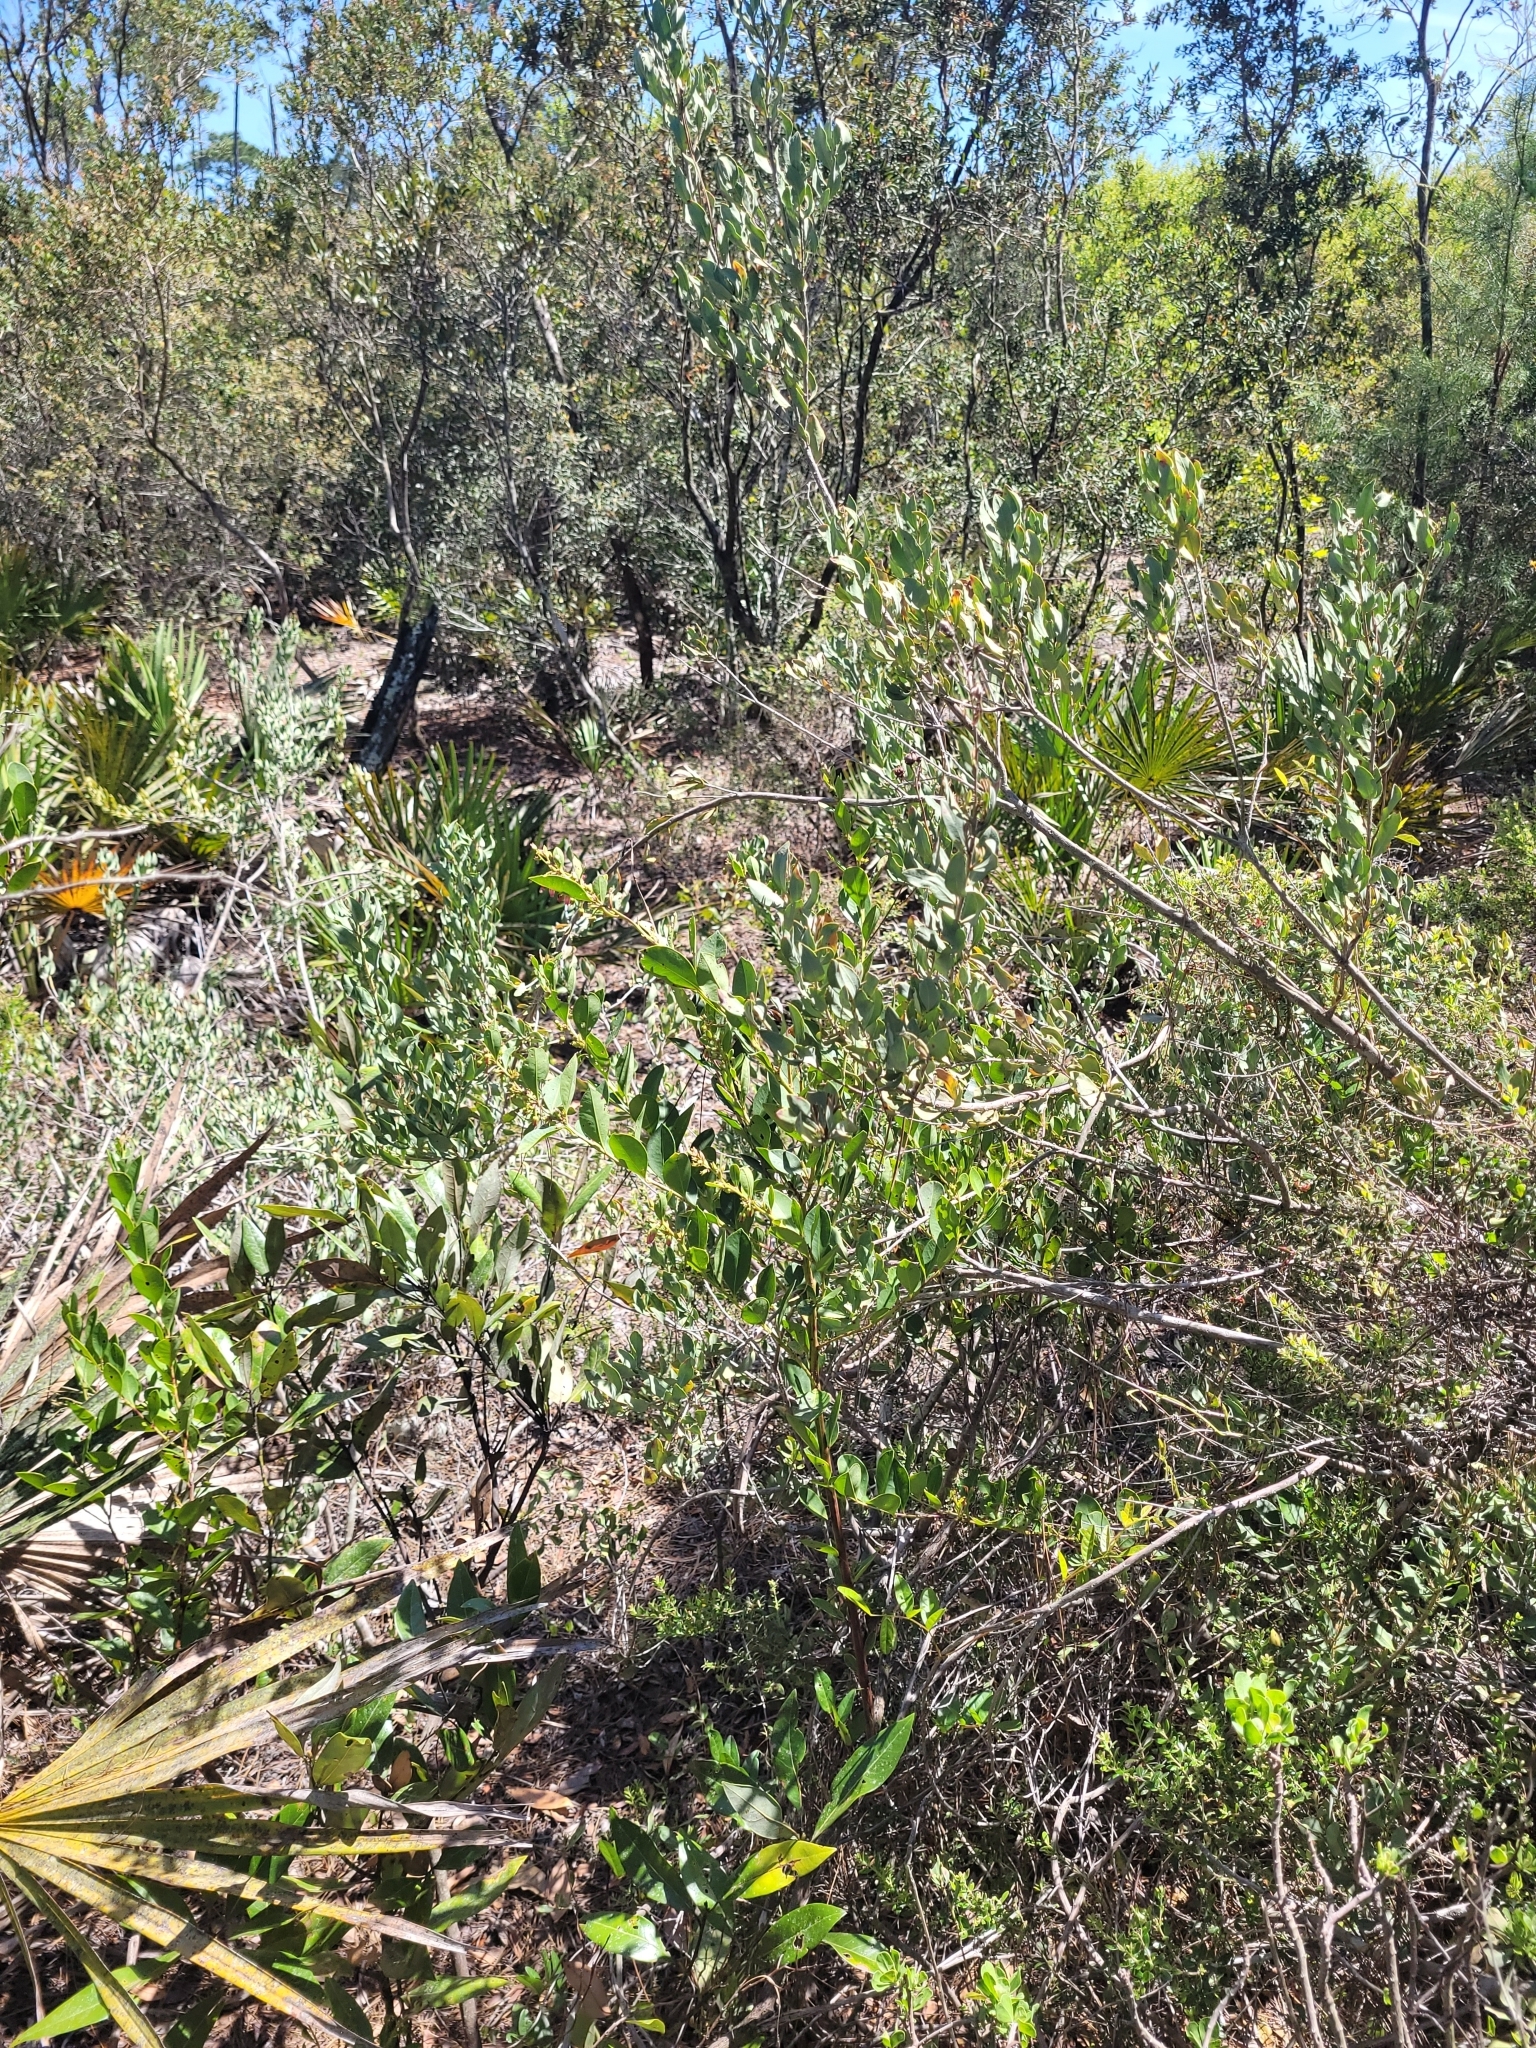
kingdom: Plantae
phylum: Tracheophyta
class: Magnoliopsida
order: Ericales
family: Ericaceae
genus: Lyonia
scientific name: Lyonia lucida
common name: Fetterbush
